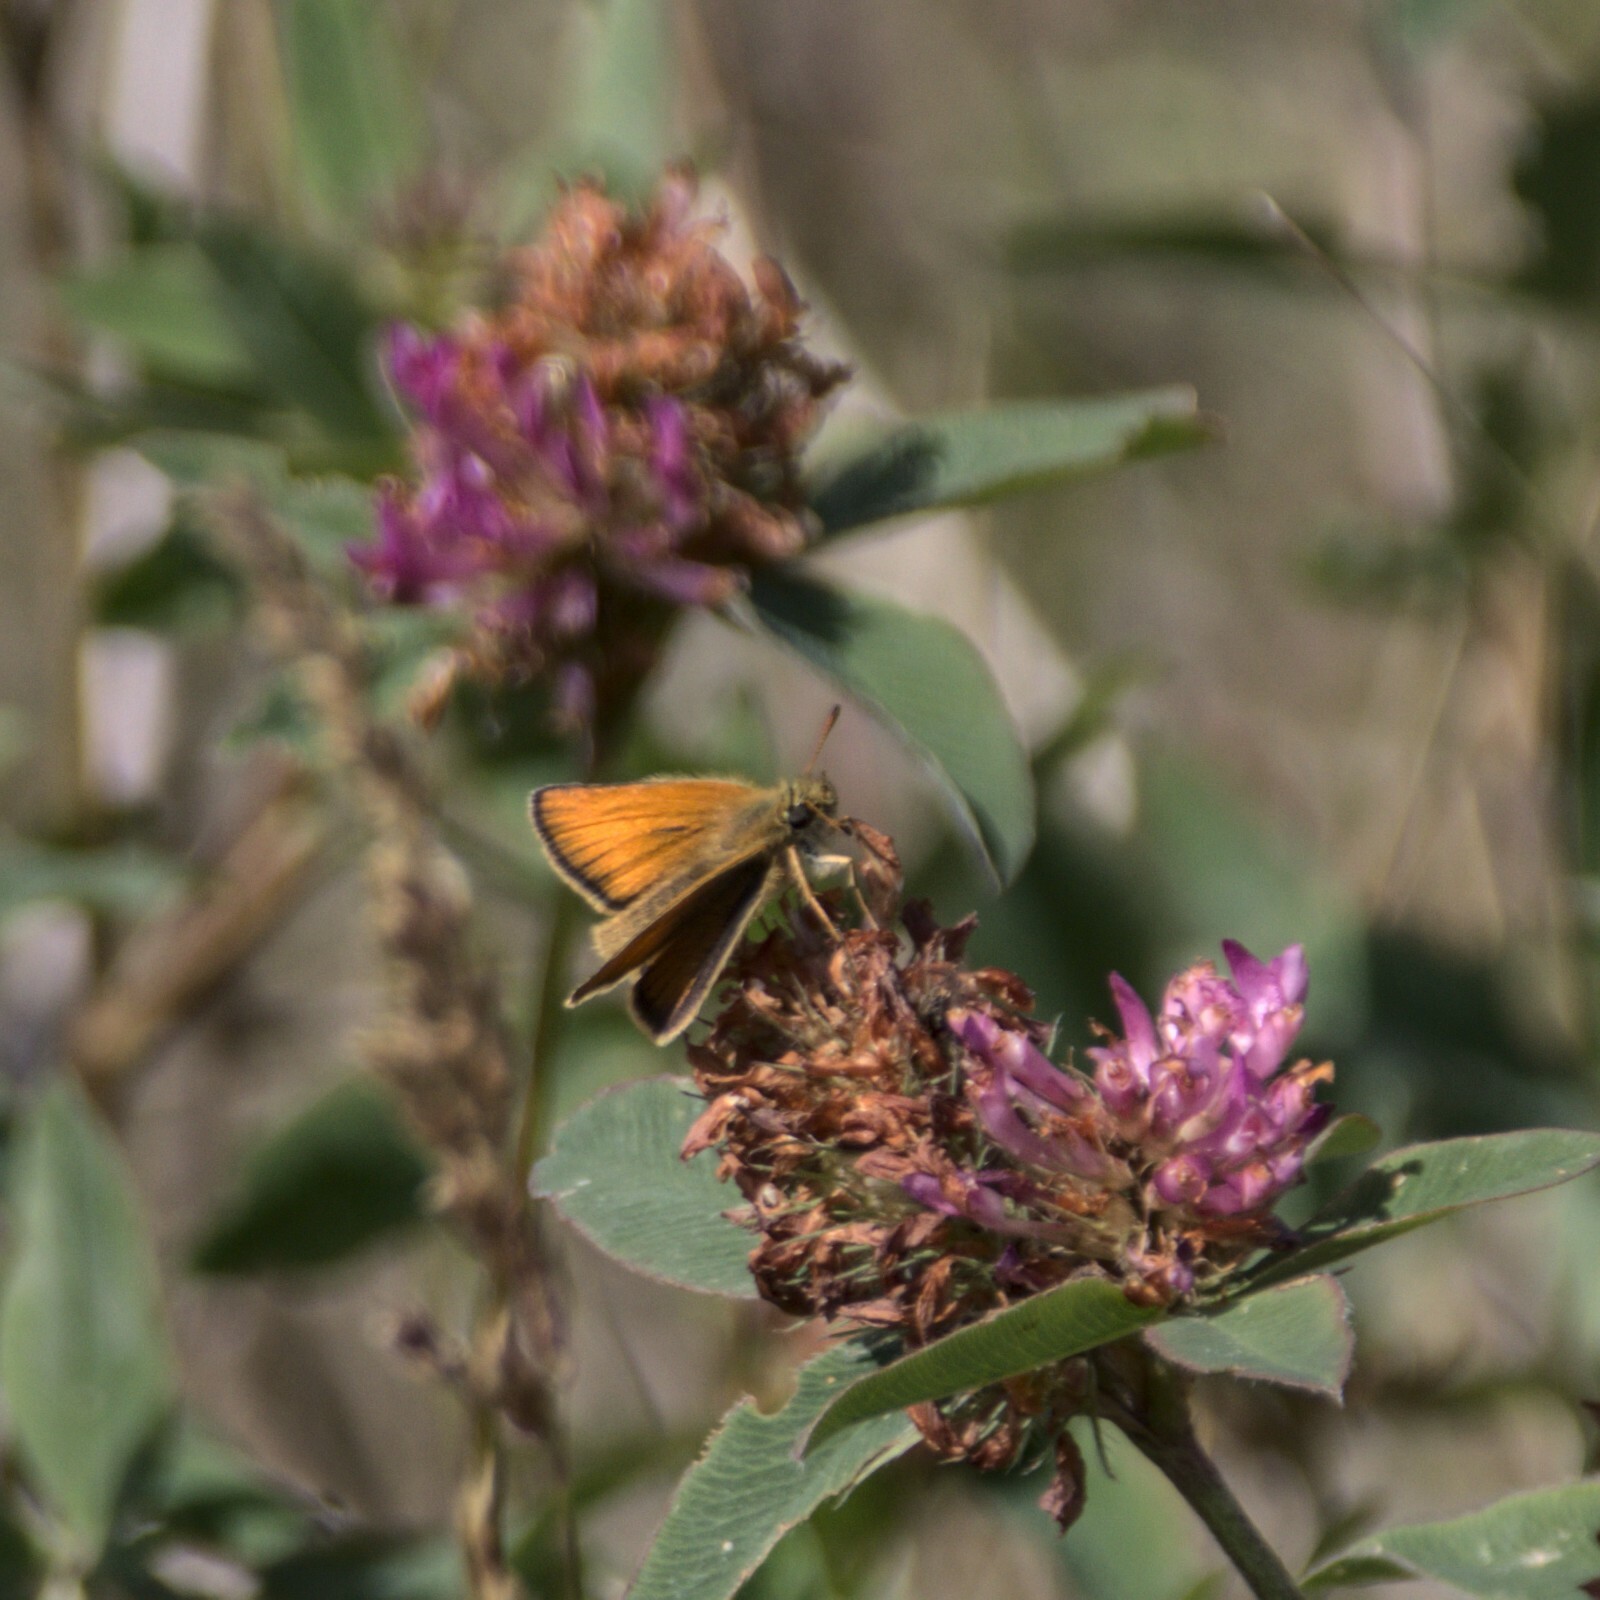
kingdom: Animalia
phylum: Arthropoda
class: Insecta
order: Lepidoptera
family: Hesperiidae
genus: Thymelicus
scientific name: Thymelicus lineola
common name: Essex skipper
